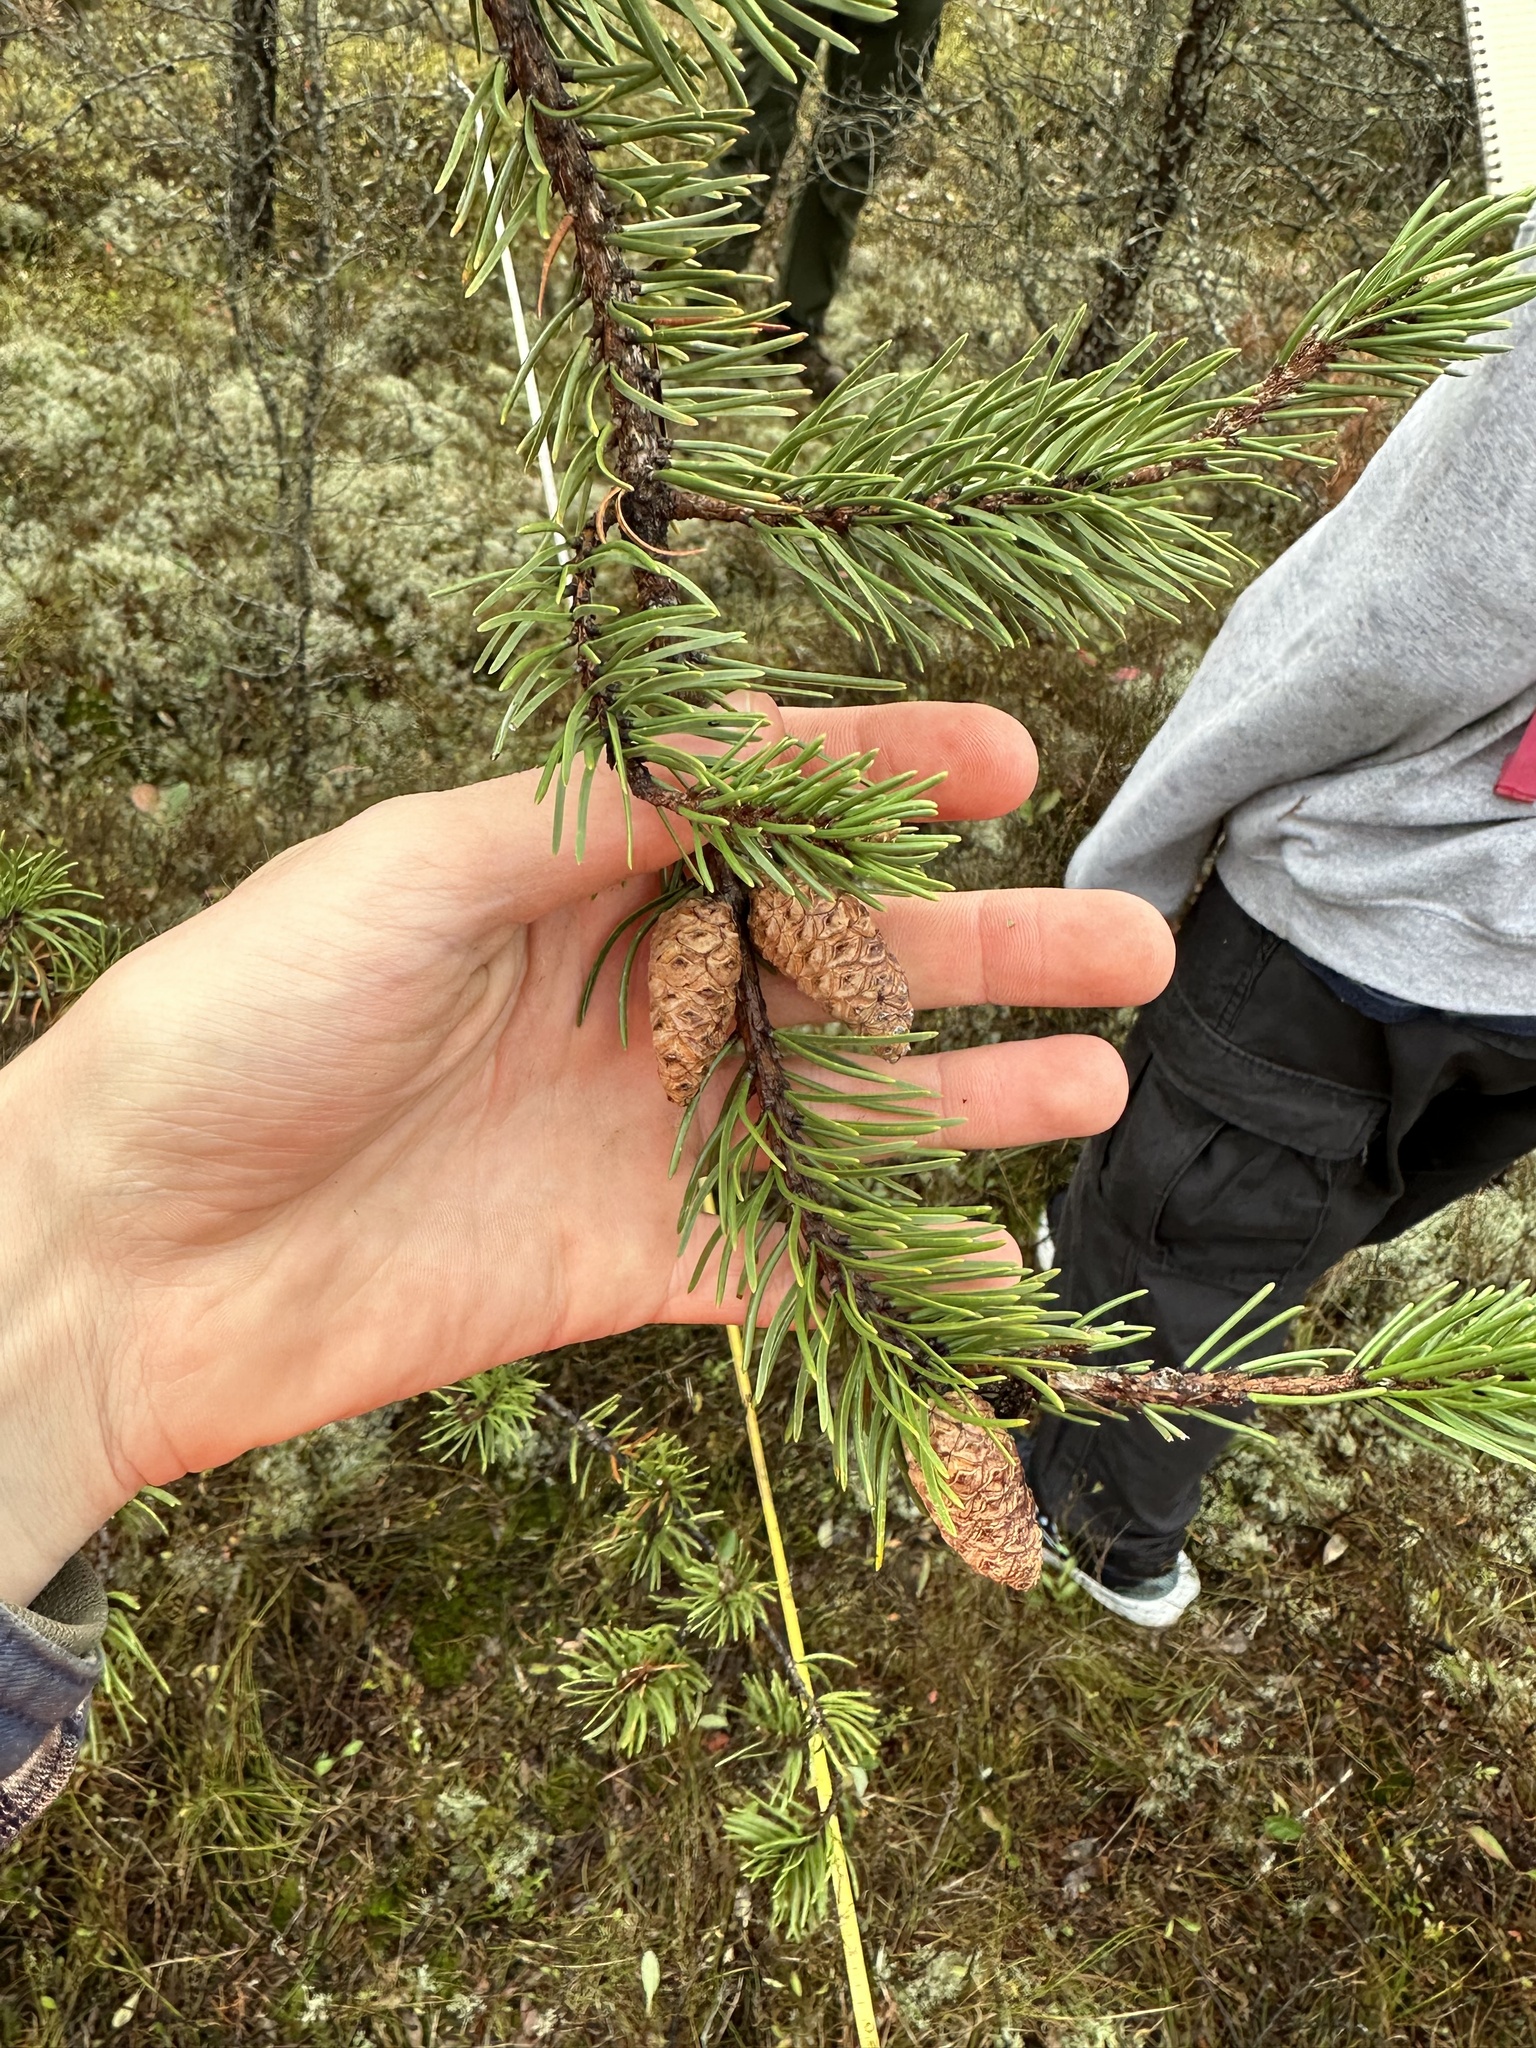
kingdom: Plantae
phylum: Tracheophyta
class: Pinopsida
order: Pinales
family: Pinaceae
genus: Pinus
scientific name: Pinus banksiana
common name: Jack pine
